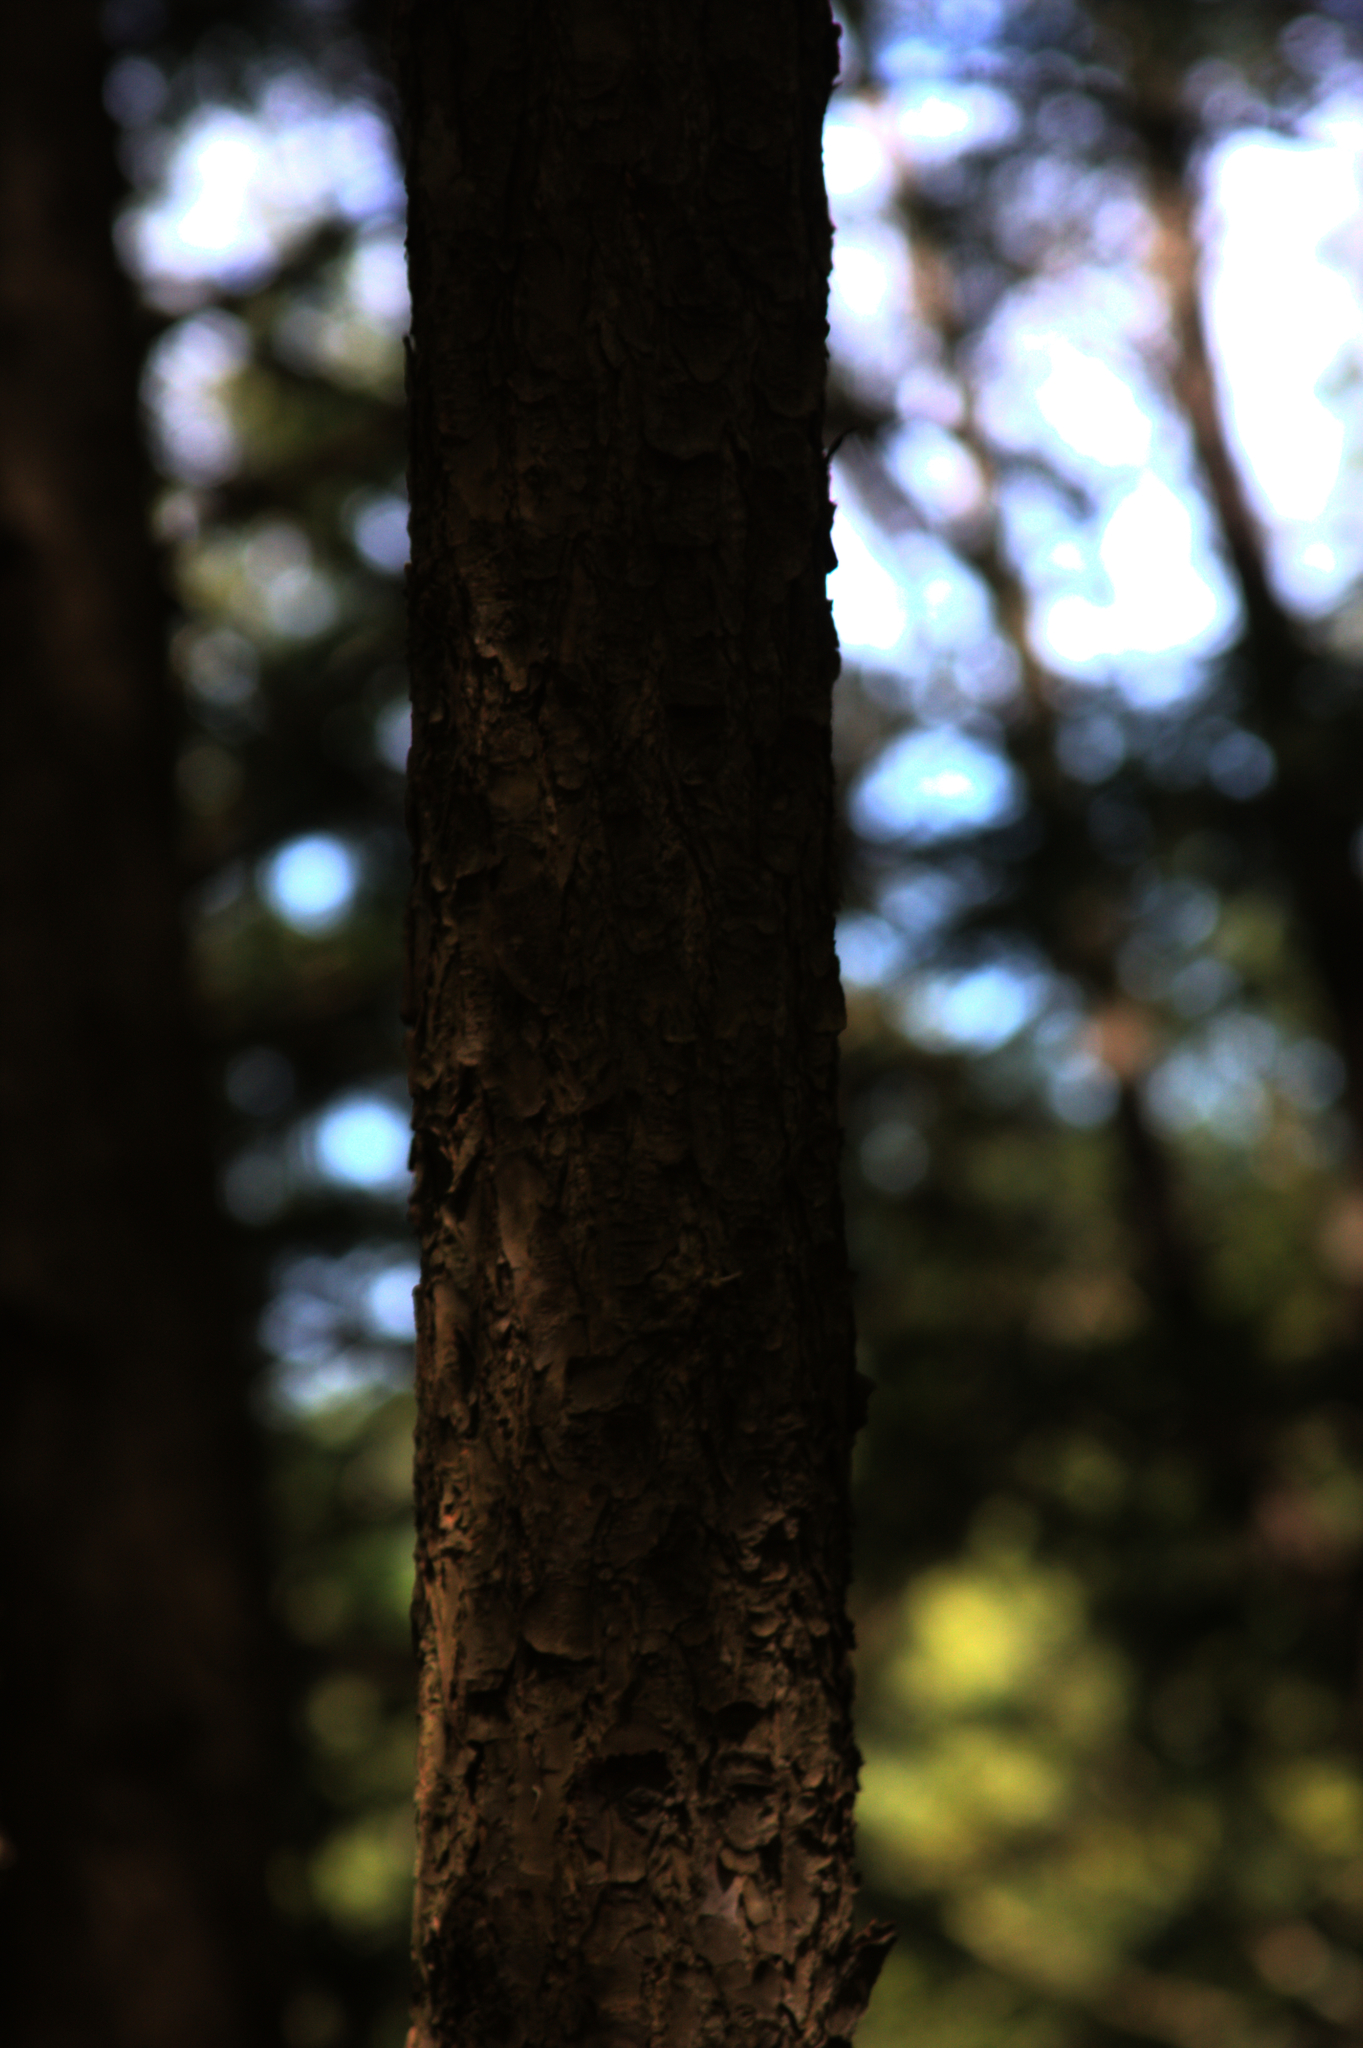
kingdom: Plantae
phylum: Tracheophyta
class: Pinopsida
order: Pinales
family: Pinaceae
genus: Tsuga
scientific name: Tsuga canadensis
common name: Eastern hemlock
